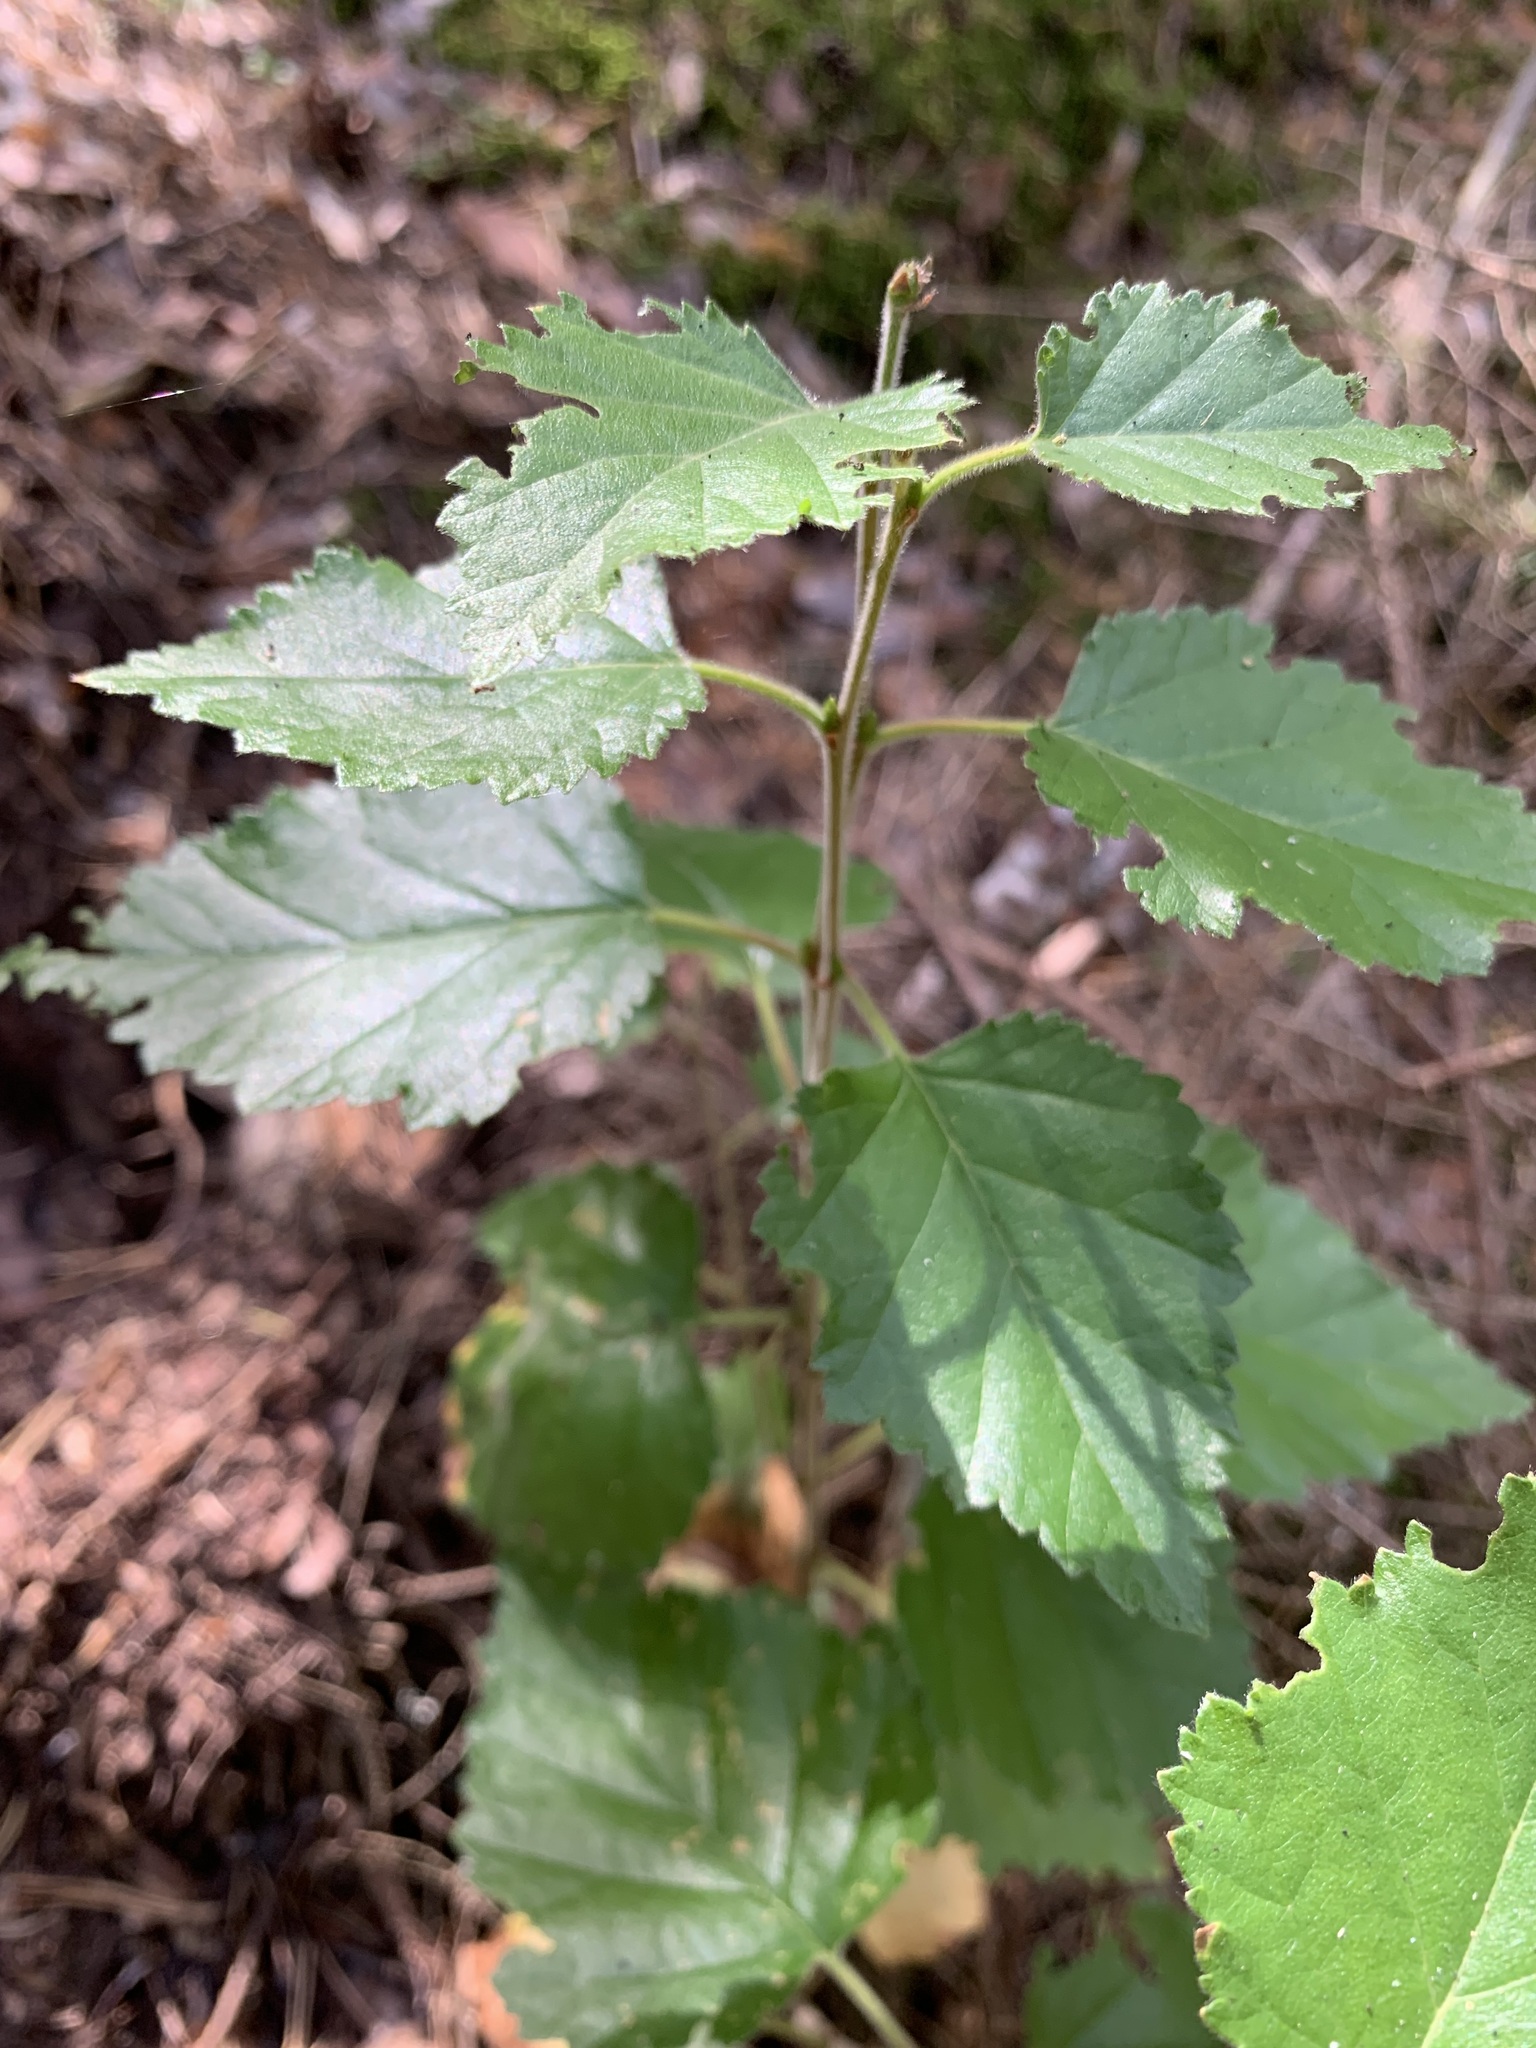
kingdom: Plantae
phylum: Tracheophyta
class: Magnoliopsida
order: Fagales
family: Betulaceae
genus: Betula
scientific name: Betula pubescens
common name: Downy birch
